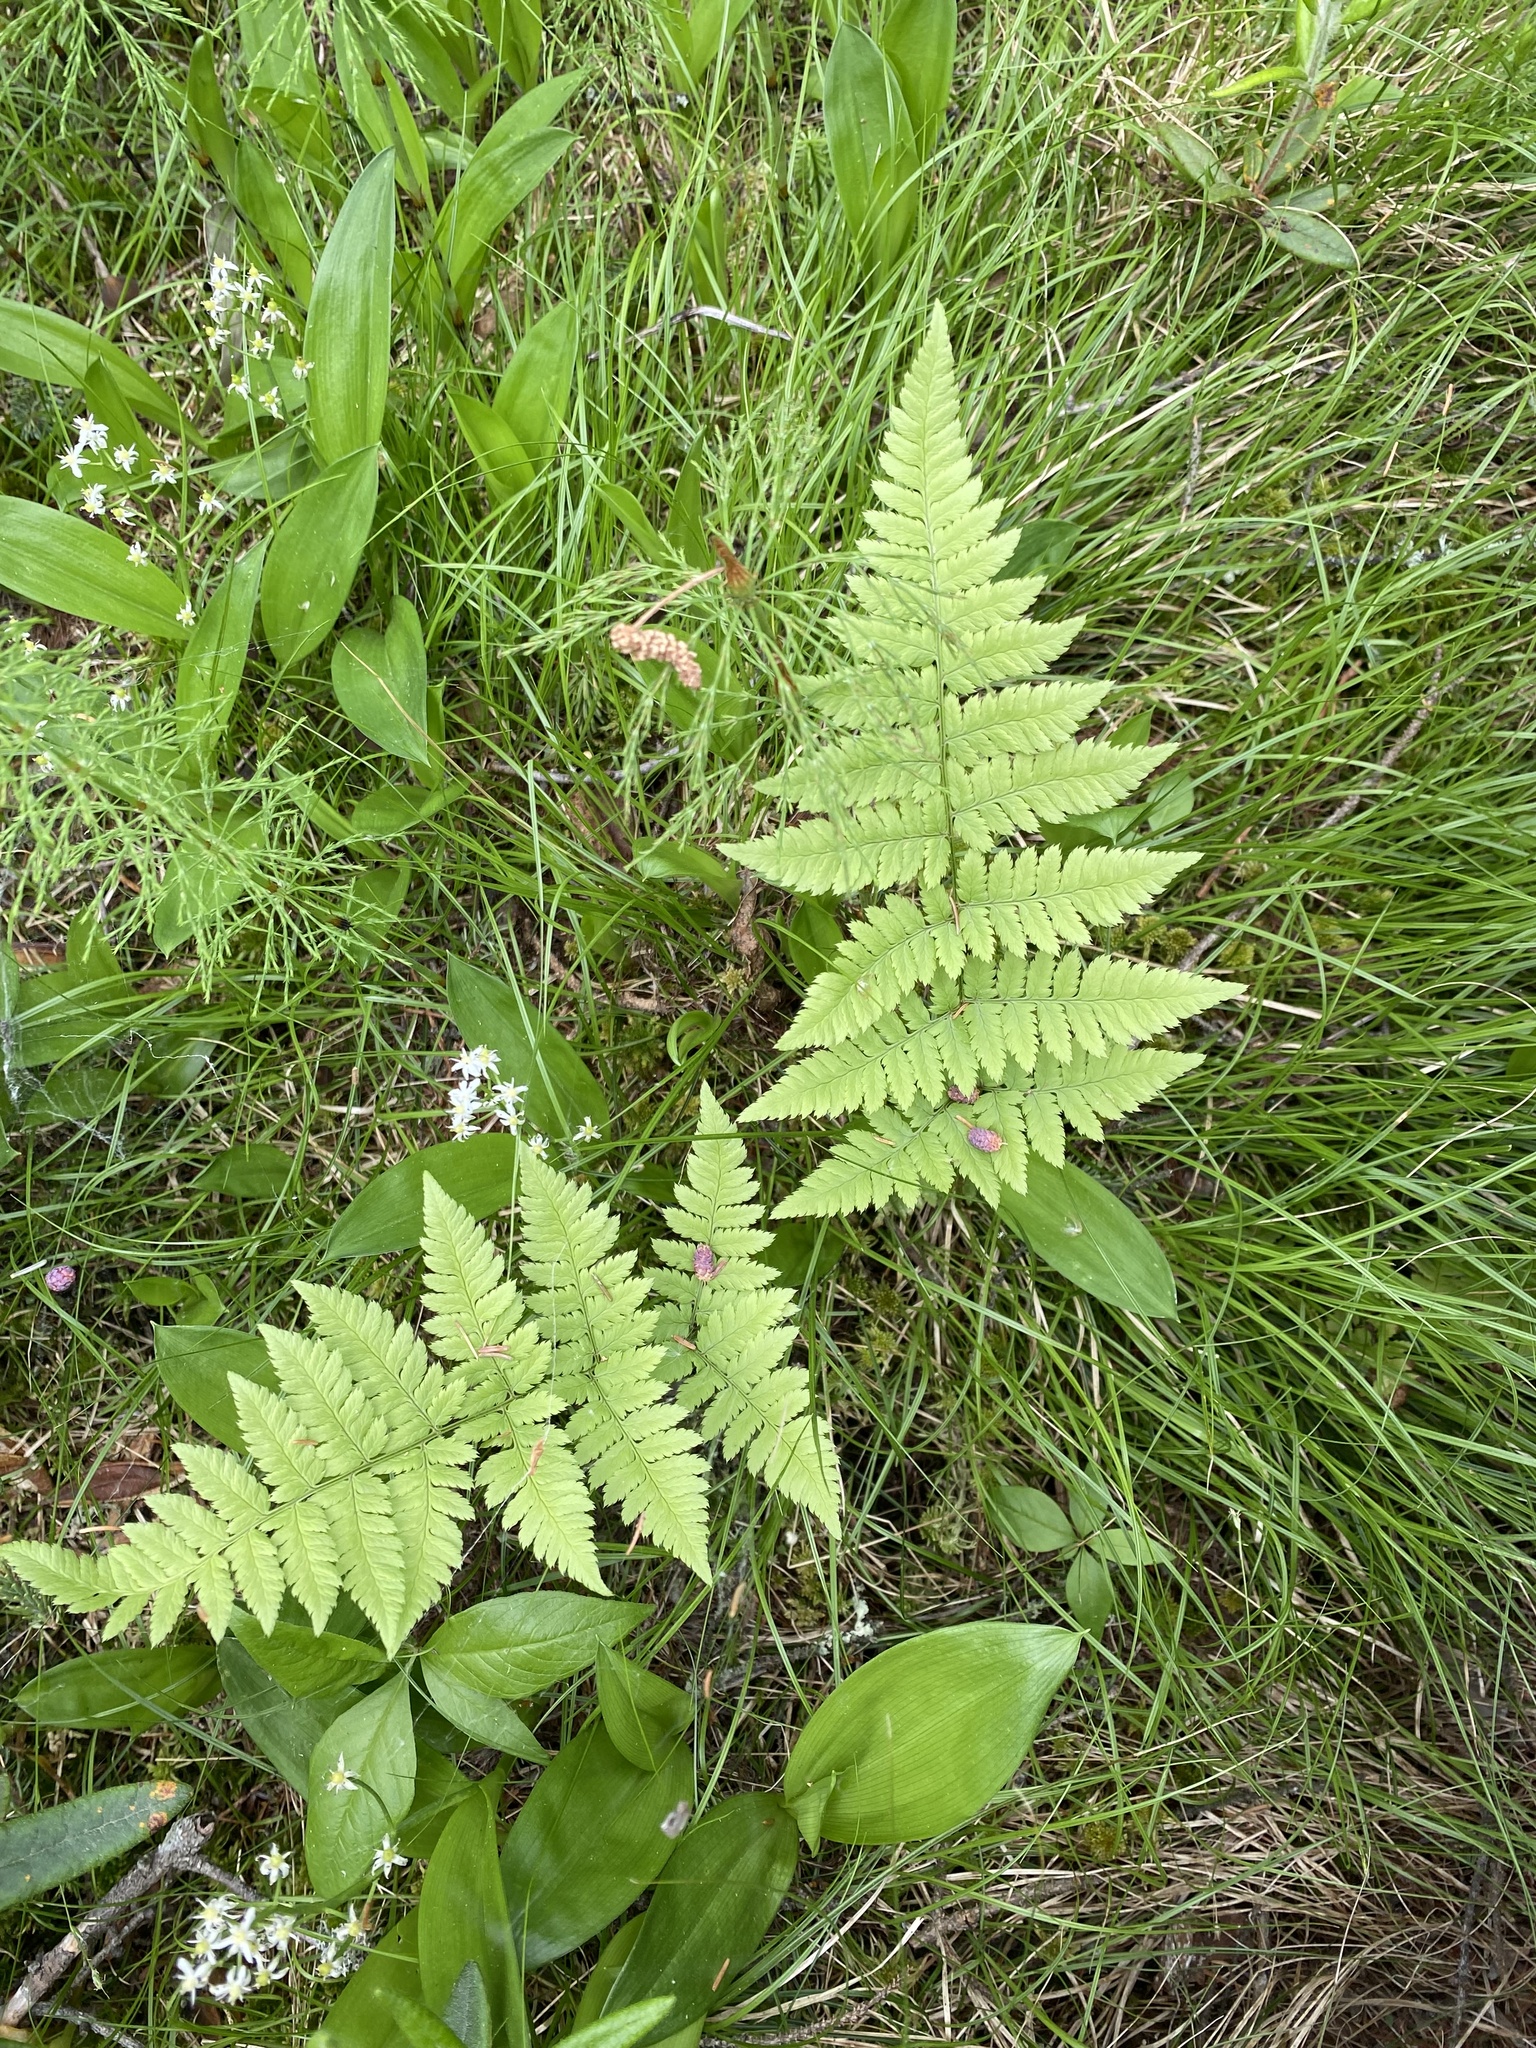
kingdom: Plantae
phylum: Tracheophyta
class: Polypodiopsida
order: Polypodiales
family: Dryopteridaceae
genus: Dryopteris
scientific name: Dryopteris carthusiana
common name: Narrow buckler-fern
